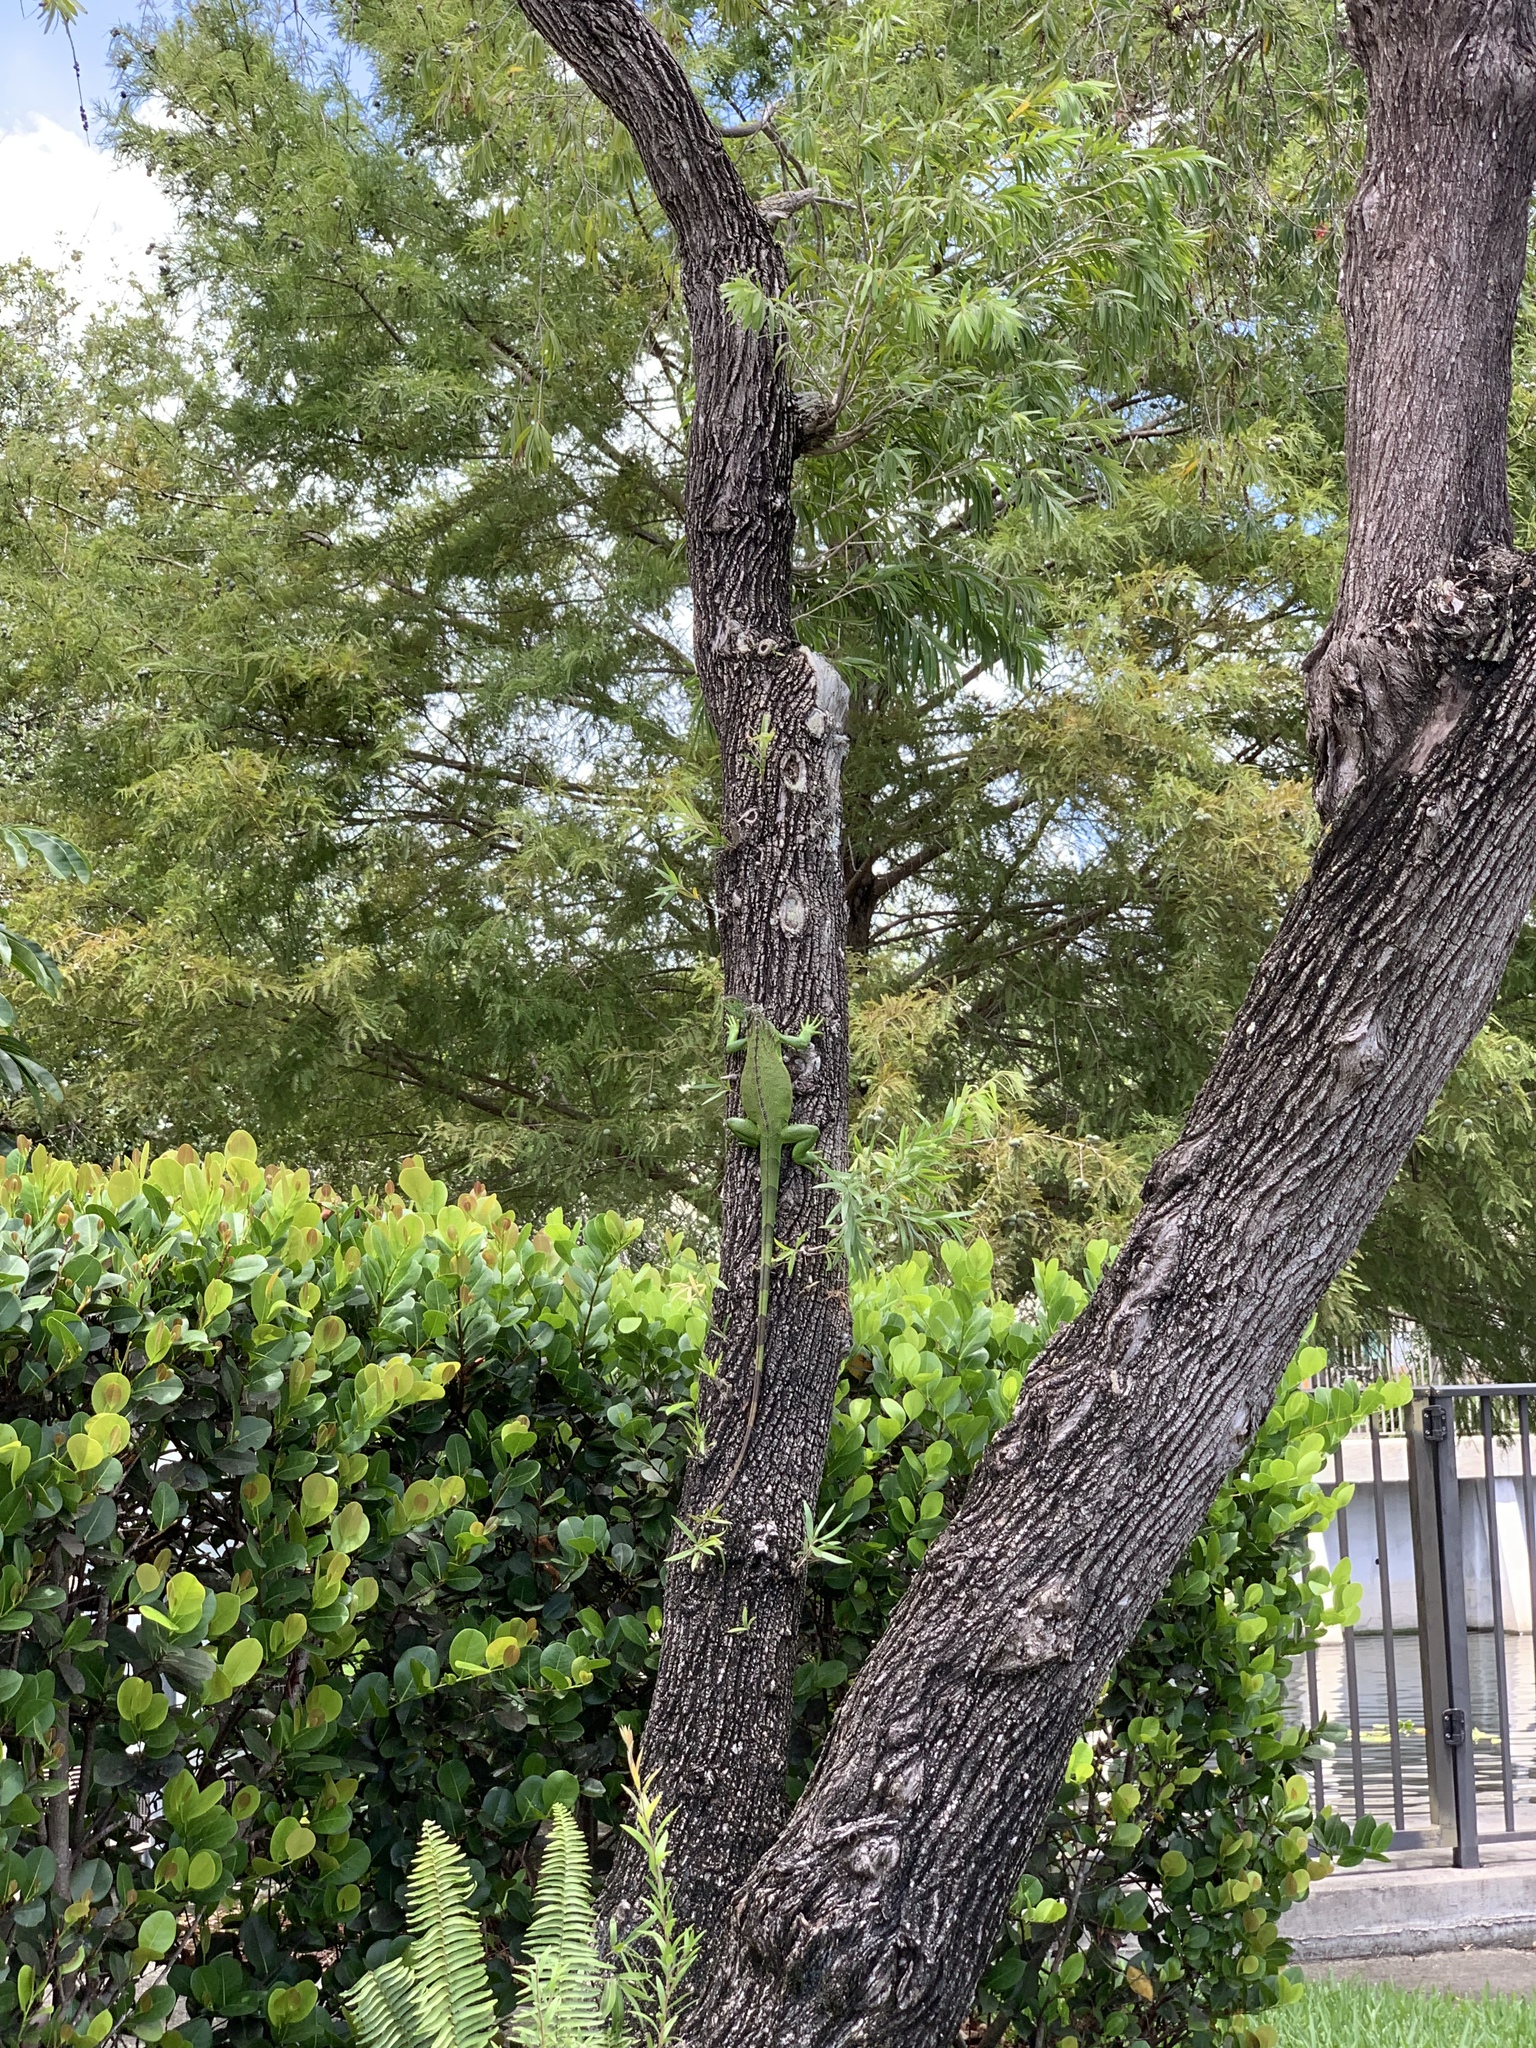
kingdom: Animalia
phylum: Chordata
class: Squamata
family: Iguanidae
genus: Iguana
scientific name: Iguana iguana
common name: Green iguana
